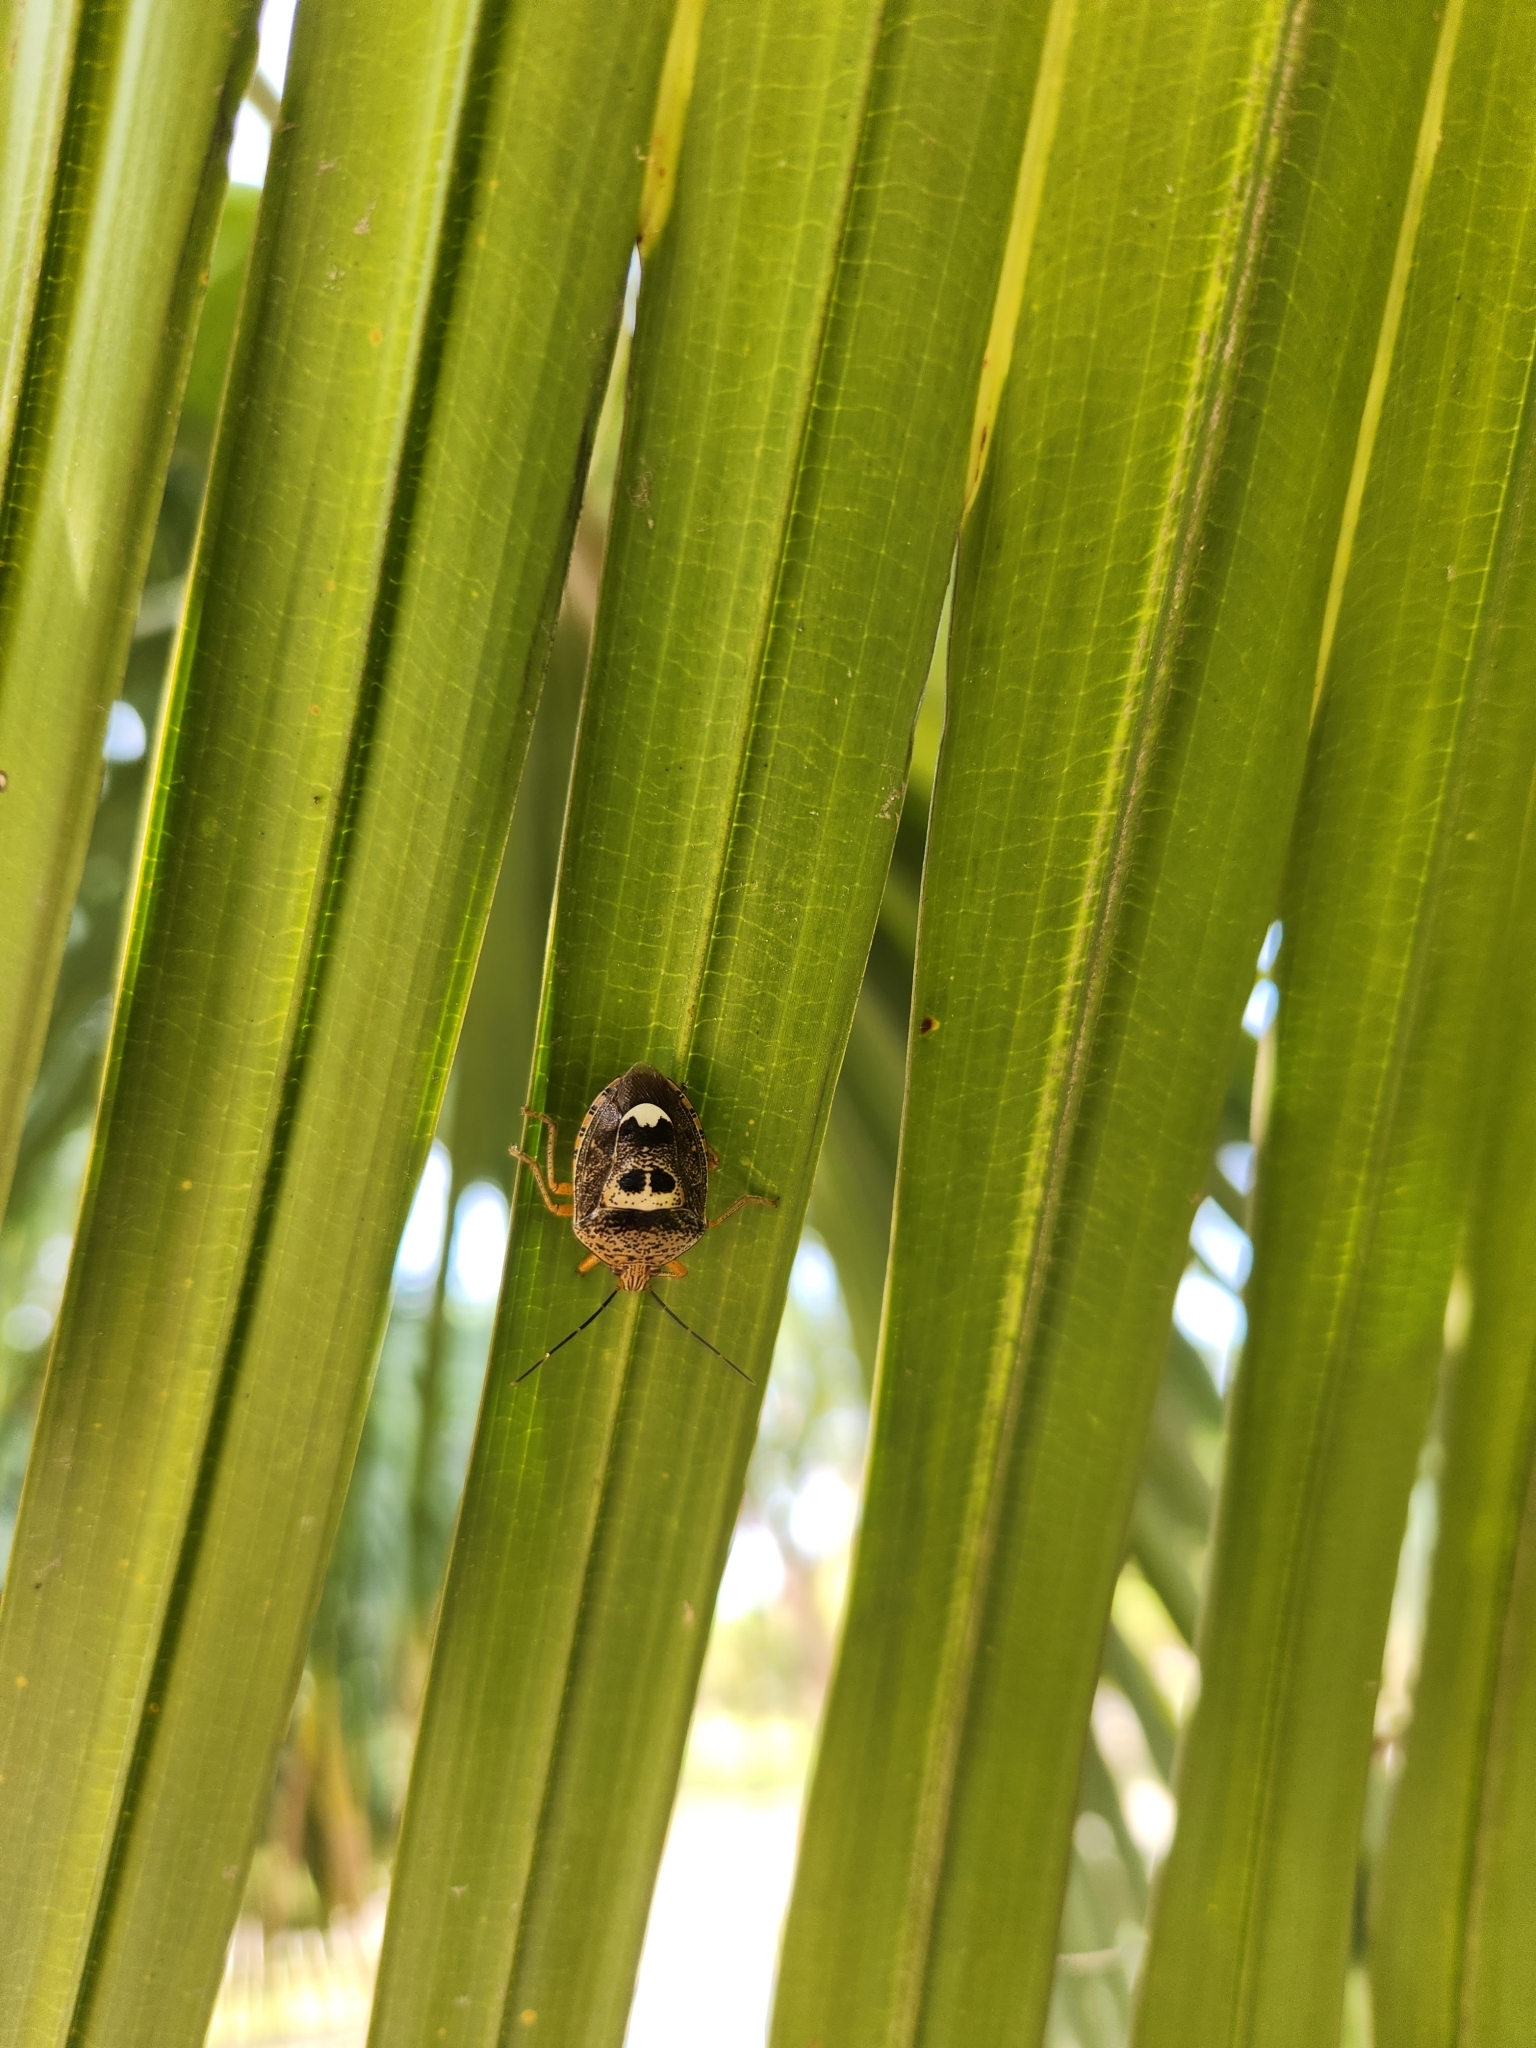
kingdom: Animalia
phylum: Arthropoda
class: Insecta
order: Hemiptera
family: Pentatomidae
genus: Axiagastus
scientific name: Axiagastus rosmarus
